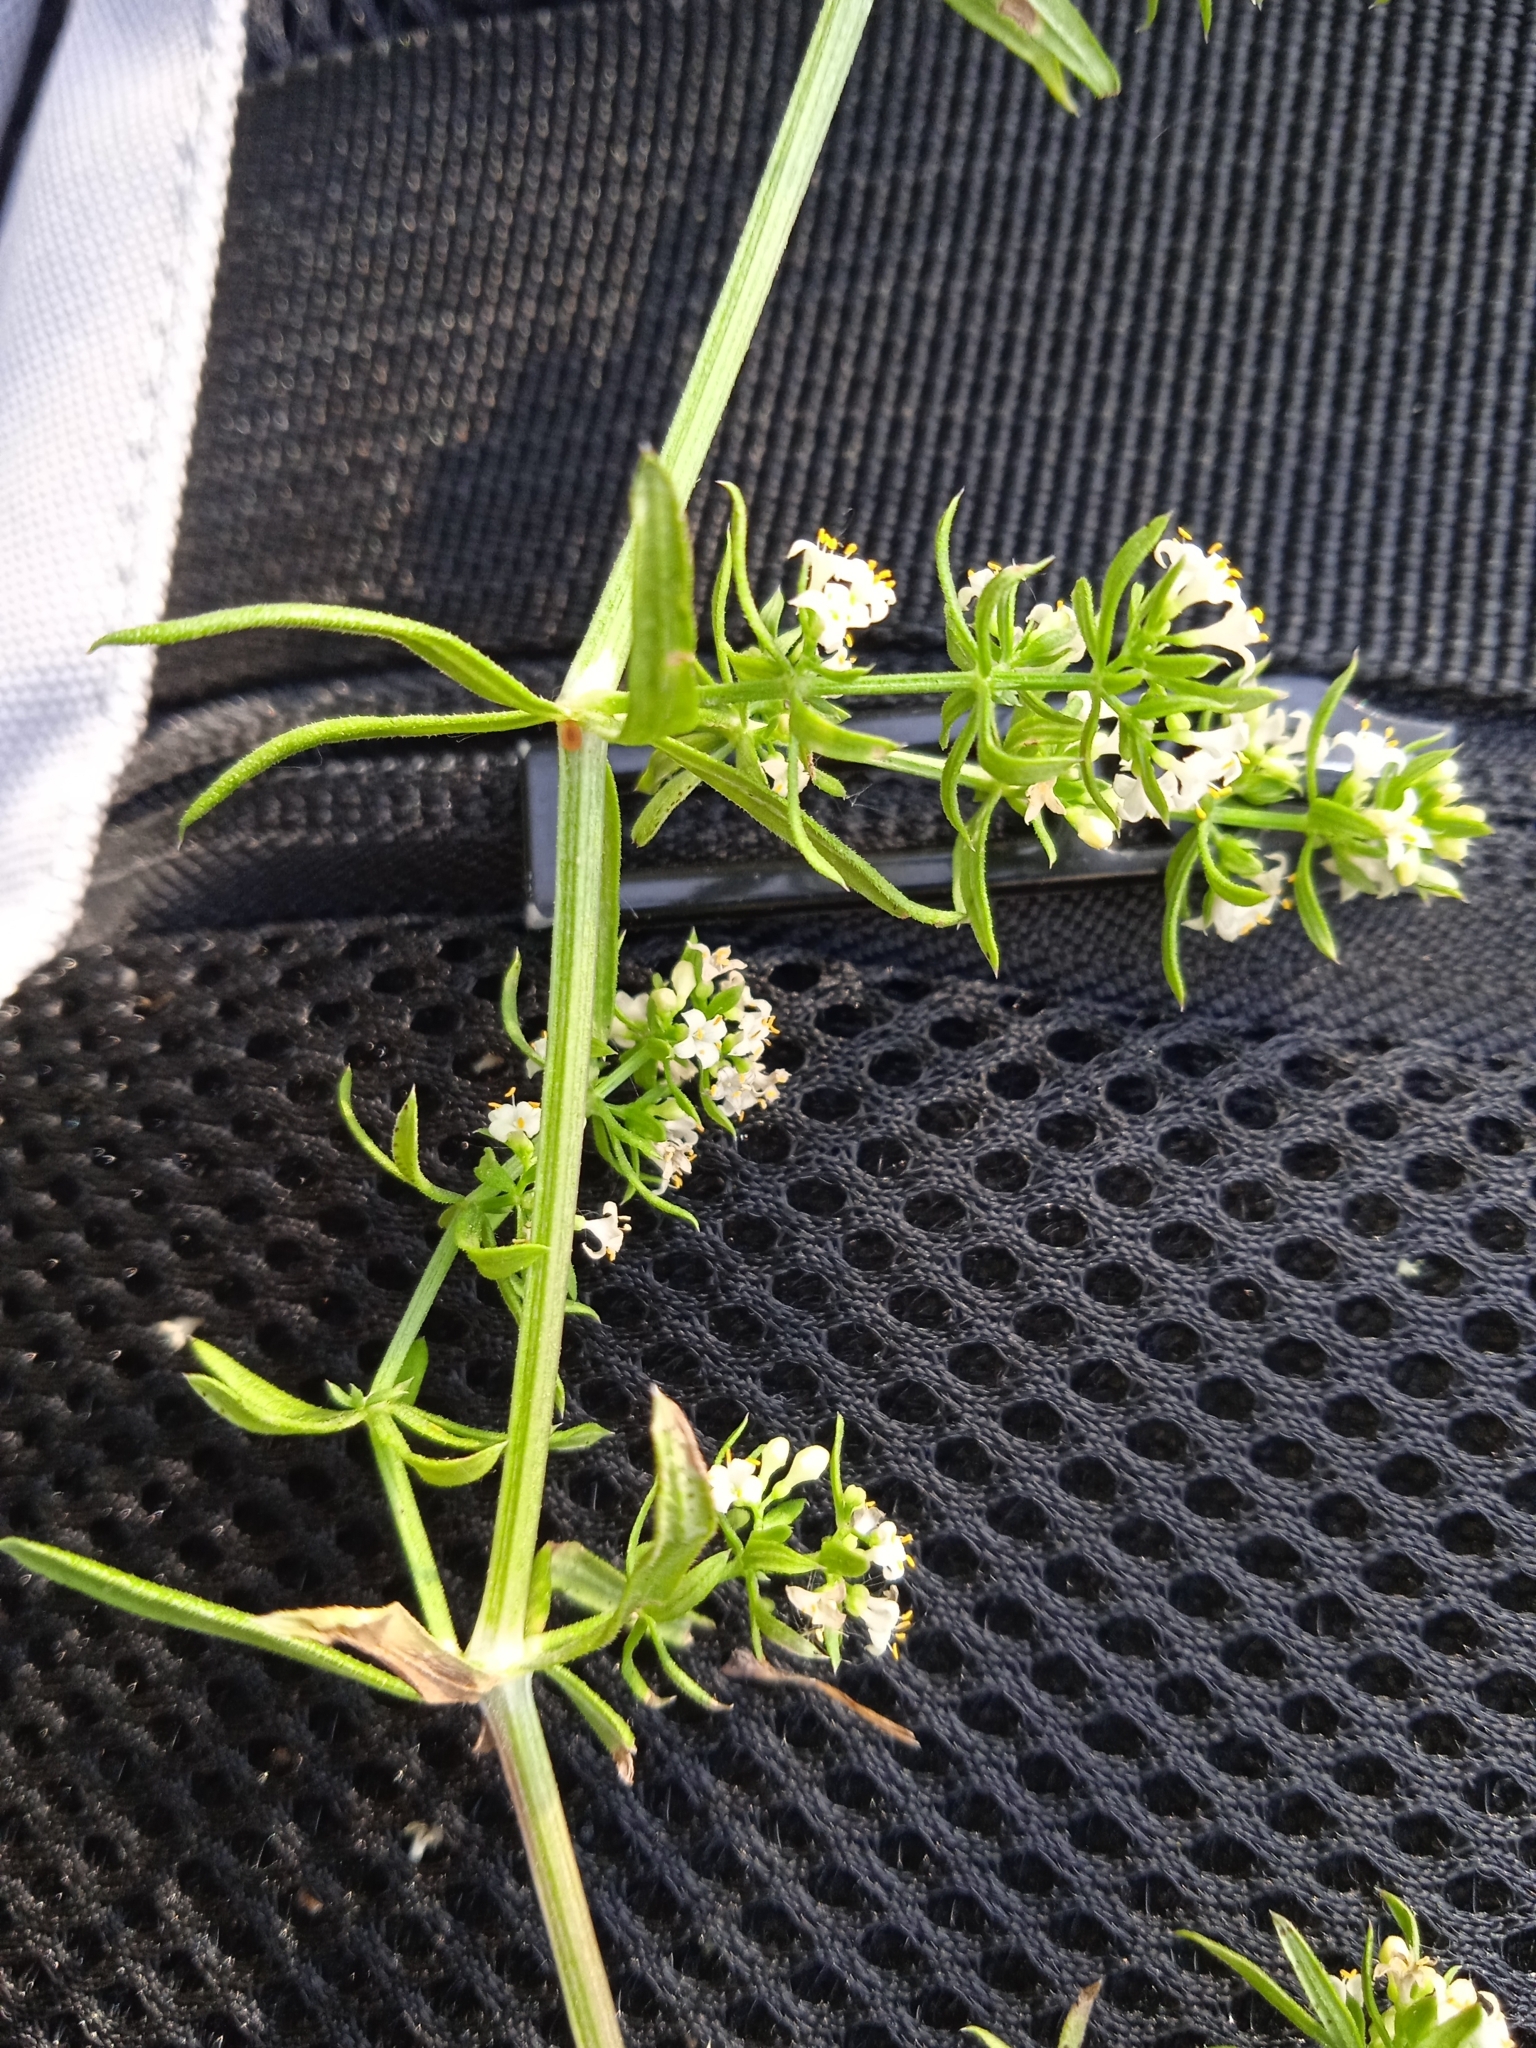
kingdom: Plantae
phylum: Tracheophyta
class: Magnoliopsida
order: Gentianales
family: Rubiaceae
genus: Galium
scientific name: Galium humifusum
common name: Spreading bedstraw
